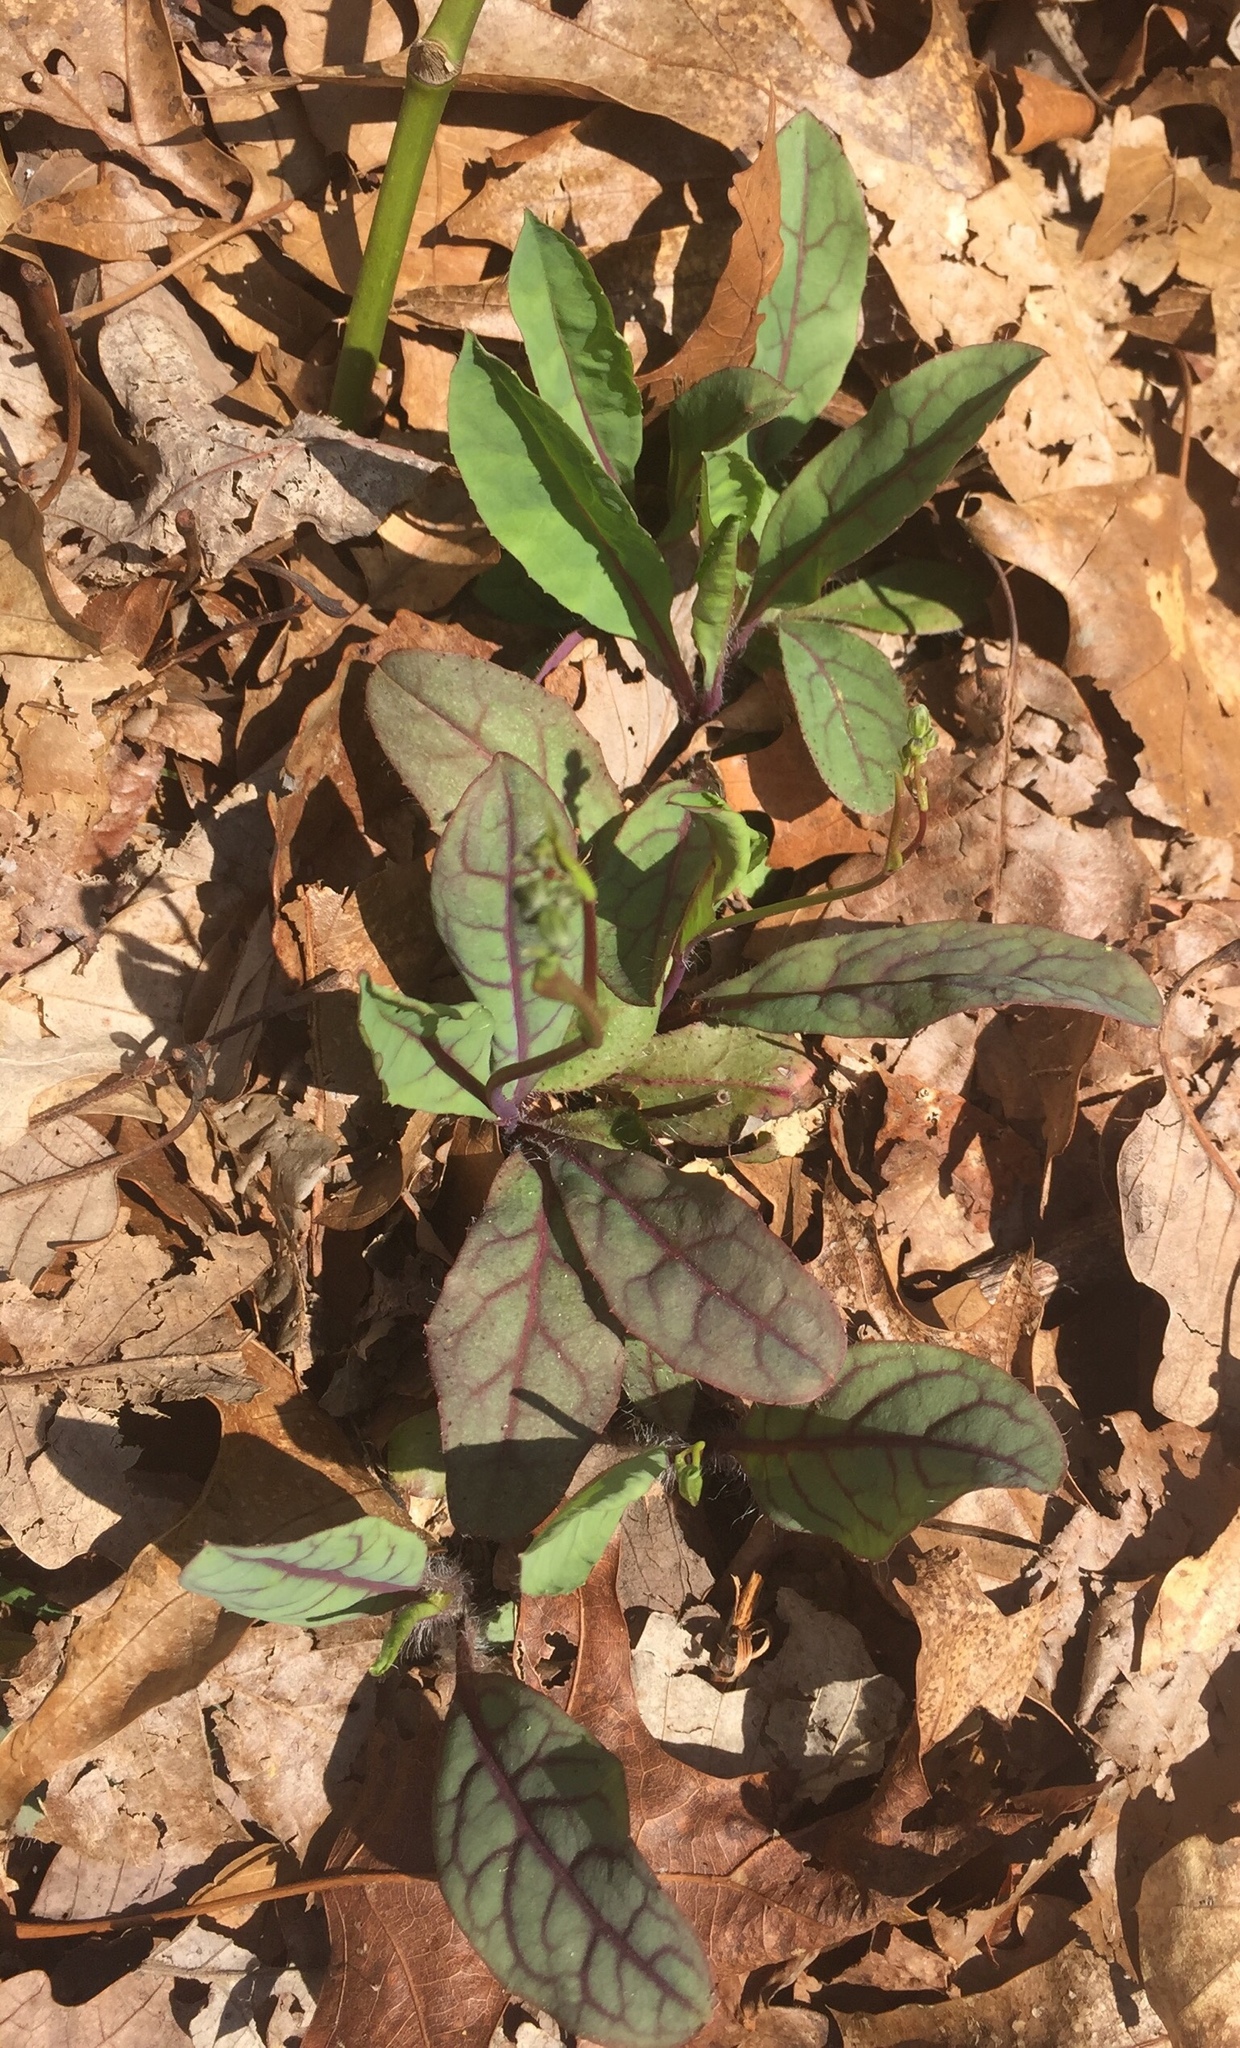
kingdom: Plantae
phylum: Tracheophyta
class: Magnoliopsida
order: Asterales
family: Asteraceae
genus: Hieracium
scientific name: Hieracium venosum
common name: Rattlesnake hawkweed
